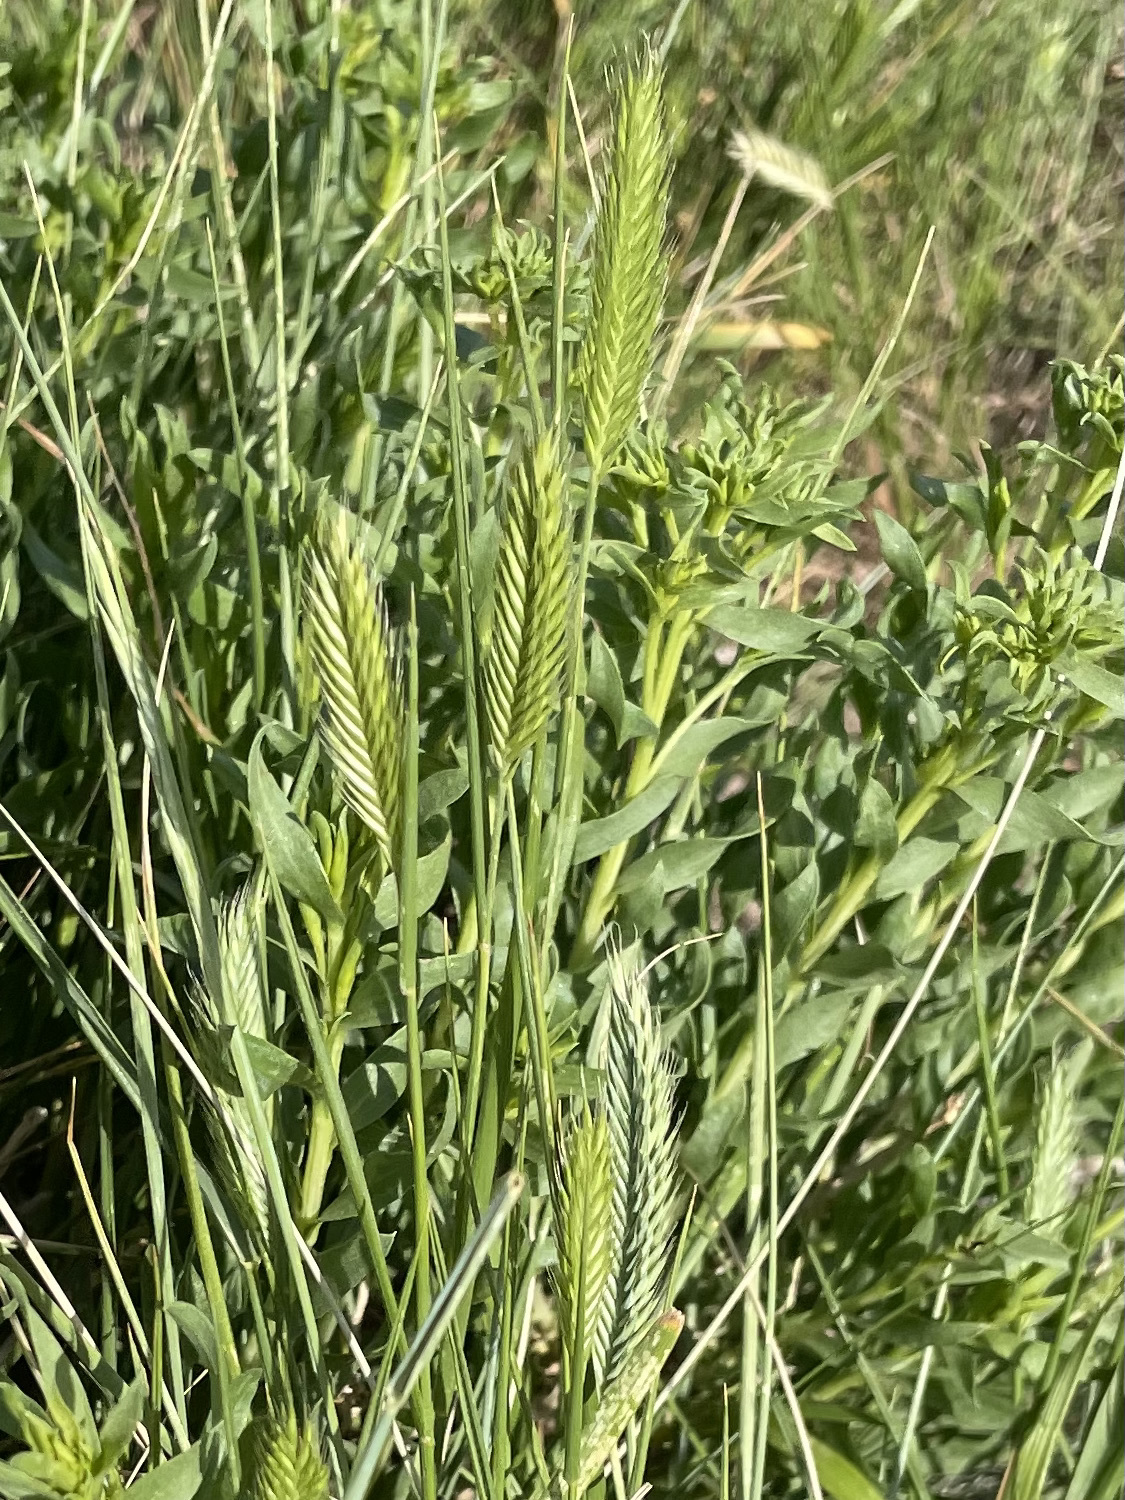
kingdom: Plantae
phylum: Tracheophyta
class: Liliopsida
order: Poales
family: Poaceae
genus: Agropyron
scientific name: Agropyron cristatum
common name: Crested wheatgrass
